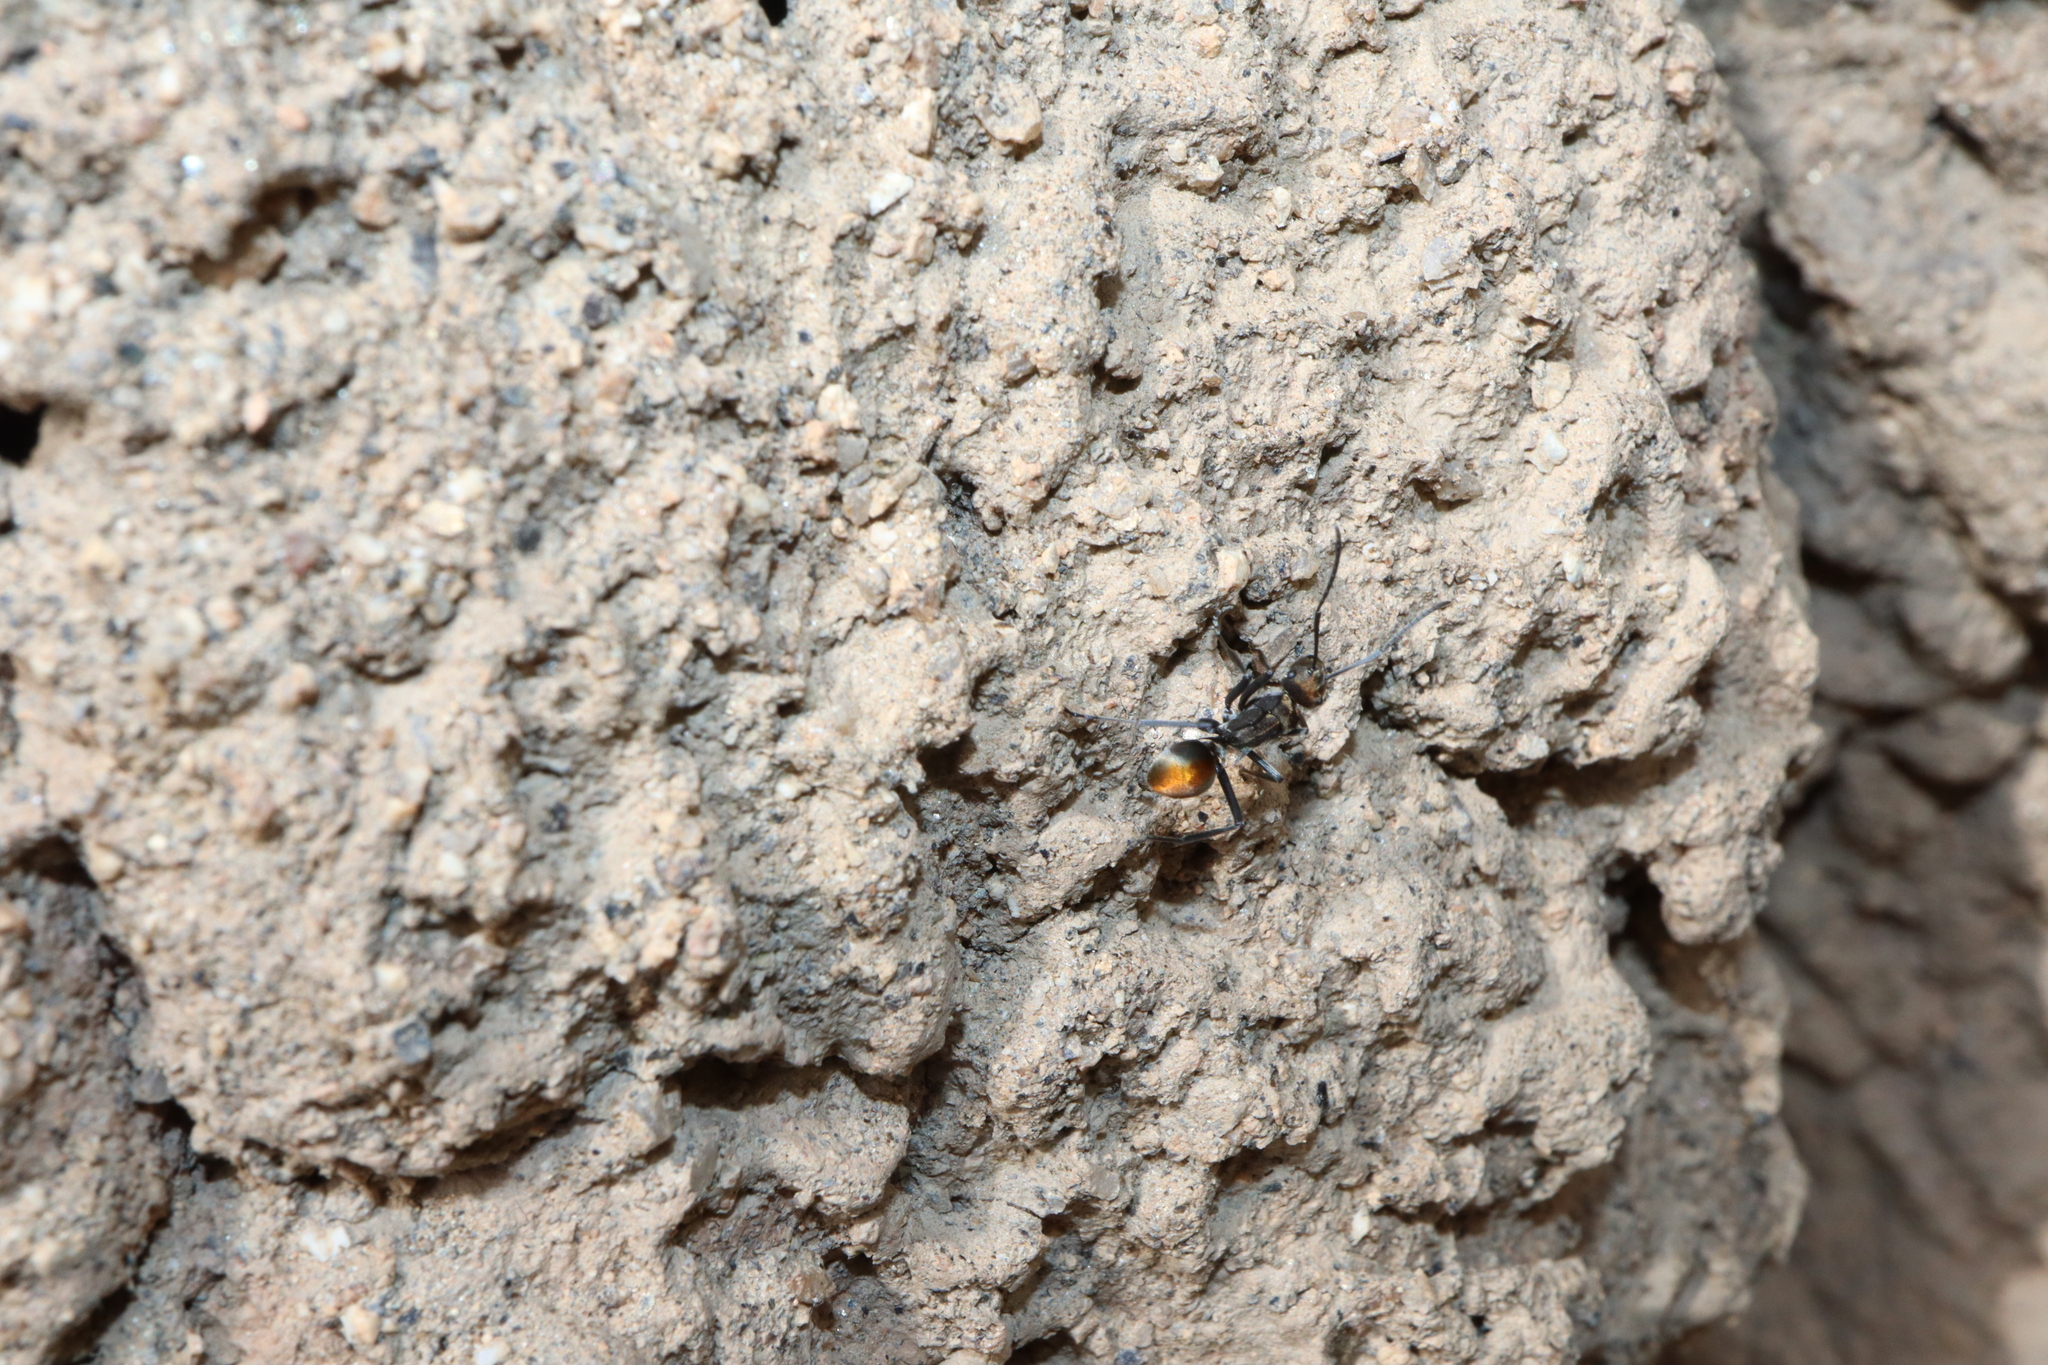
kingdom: Animalia
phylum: Arthropoda
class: Insecta
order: Hymenoptera
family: Formicidae
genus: Polyrhachis
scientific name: Polyrhachis trapezoidea
